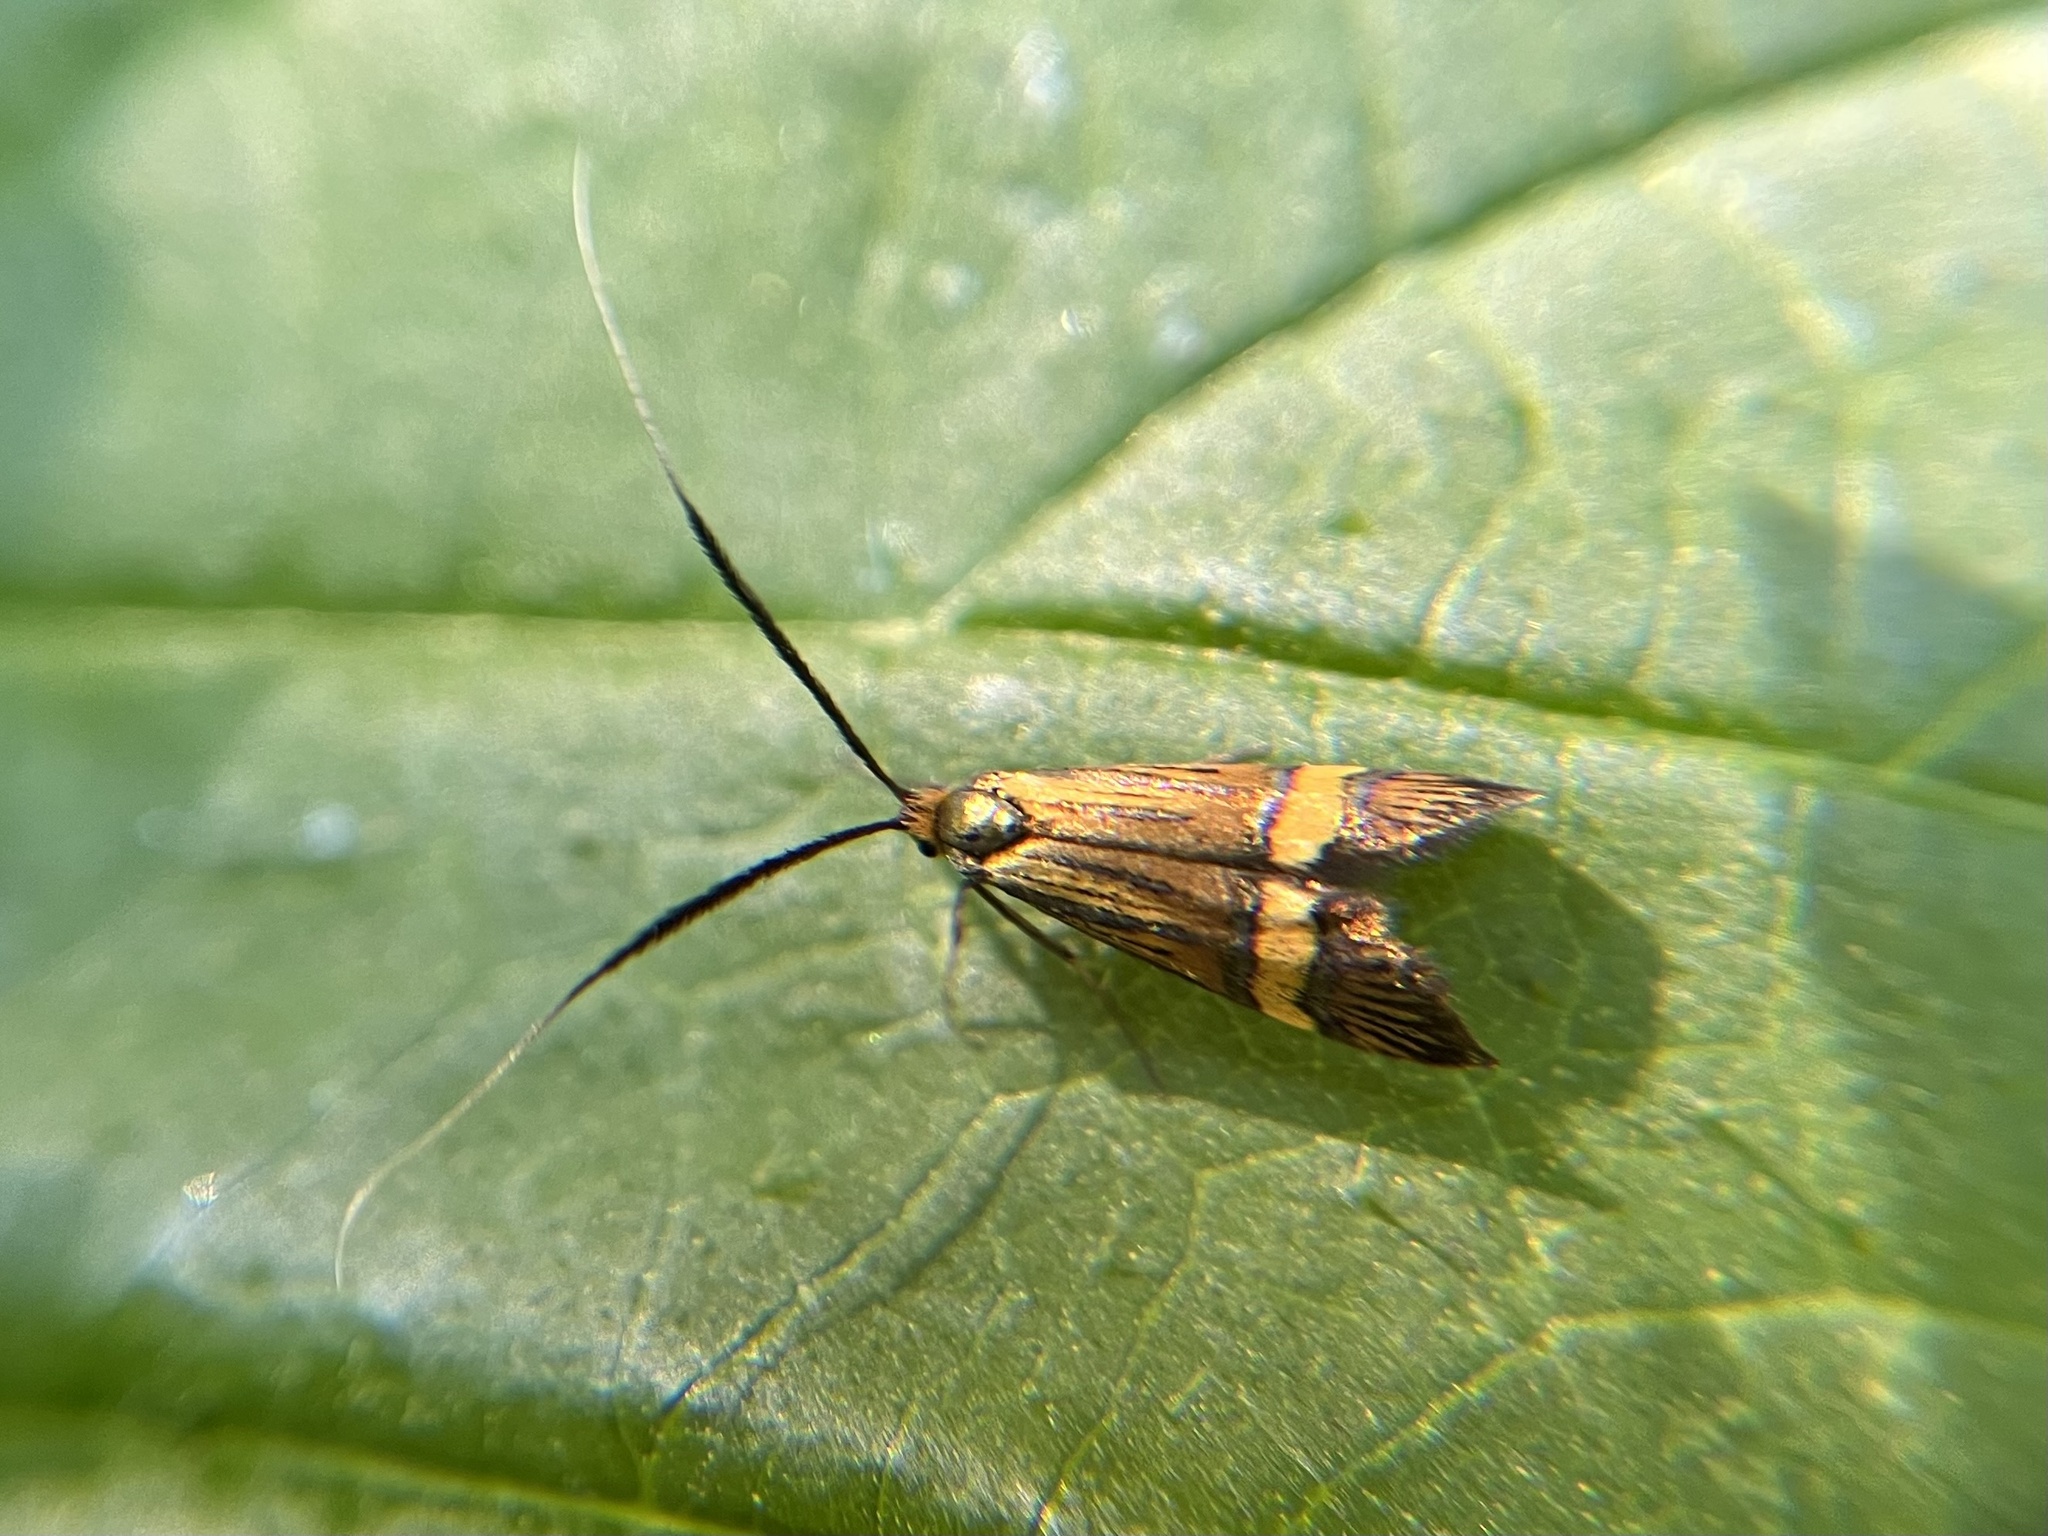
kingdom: Animalia
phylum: Arthropoda
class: Insecta
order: Lepidoptera
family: Adelidae
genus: Nemophora
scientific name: Nemophora degeerella
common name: Yellow-barred long-horn
